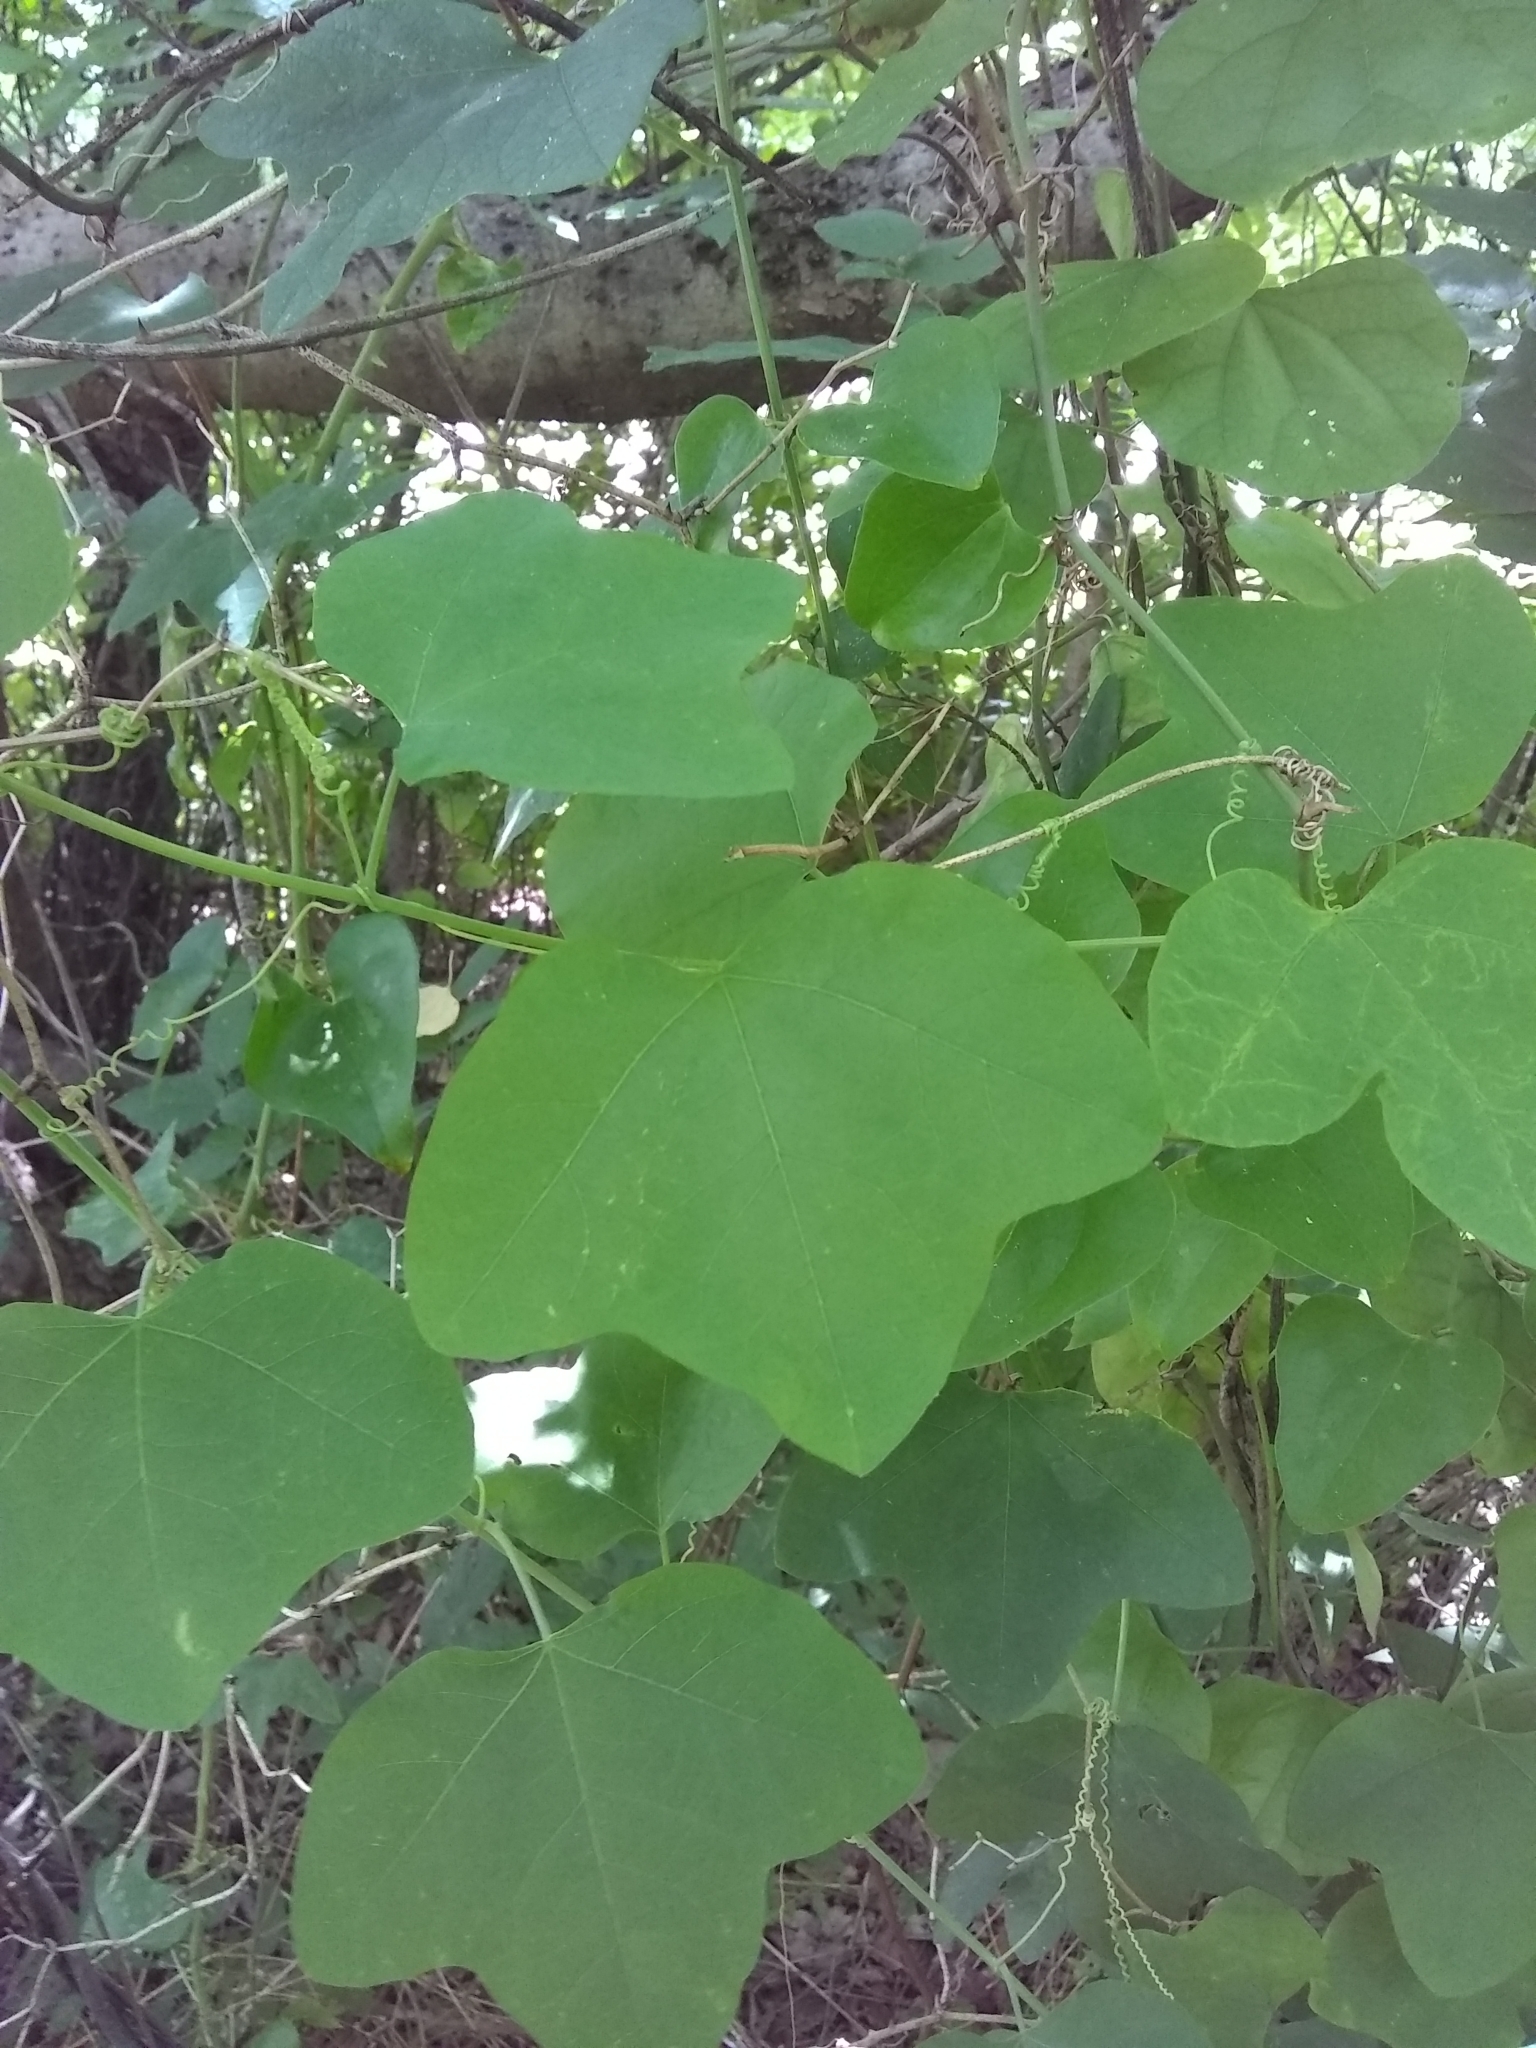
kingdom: Plantae
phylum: Tracheophyta
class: Magnoliopsida
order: Malpighiales
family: Passifloraceae
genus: Passiflora
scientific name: Passiflora lutea
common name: Yellow passionflower
